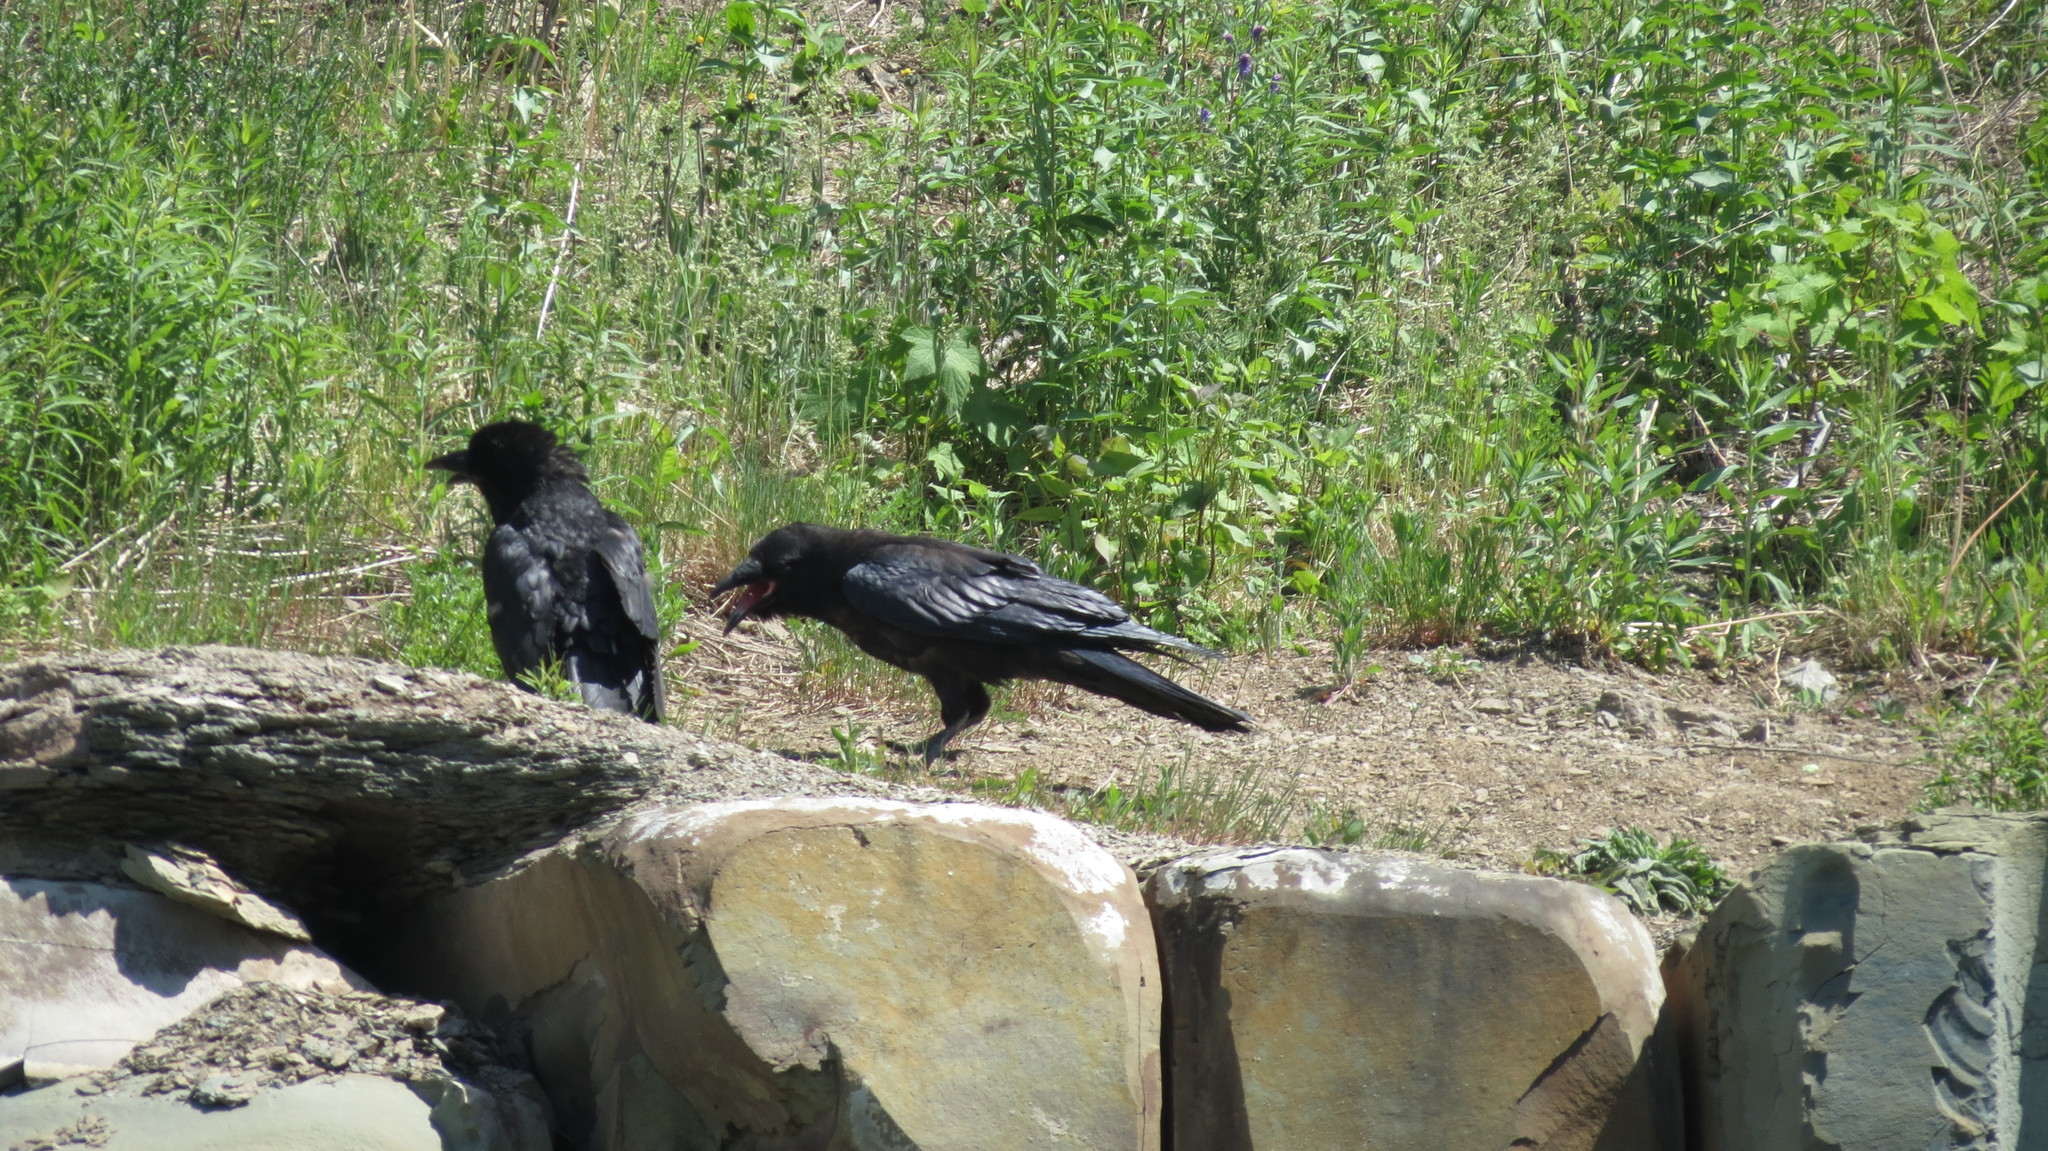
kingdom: Animalia
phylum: Chordata
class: Aves
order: Passeriformes
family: Corvidae
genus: Corvus
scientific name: Corvus corax
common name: Common raven
